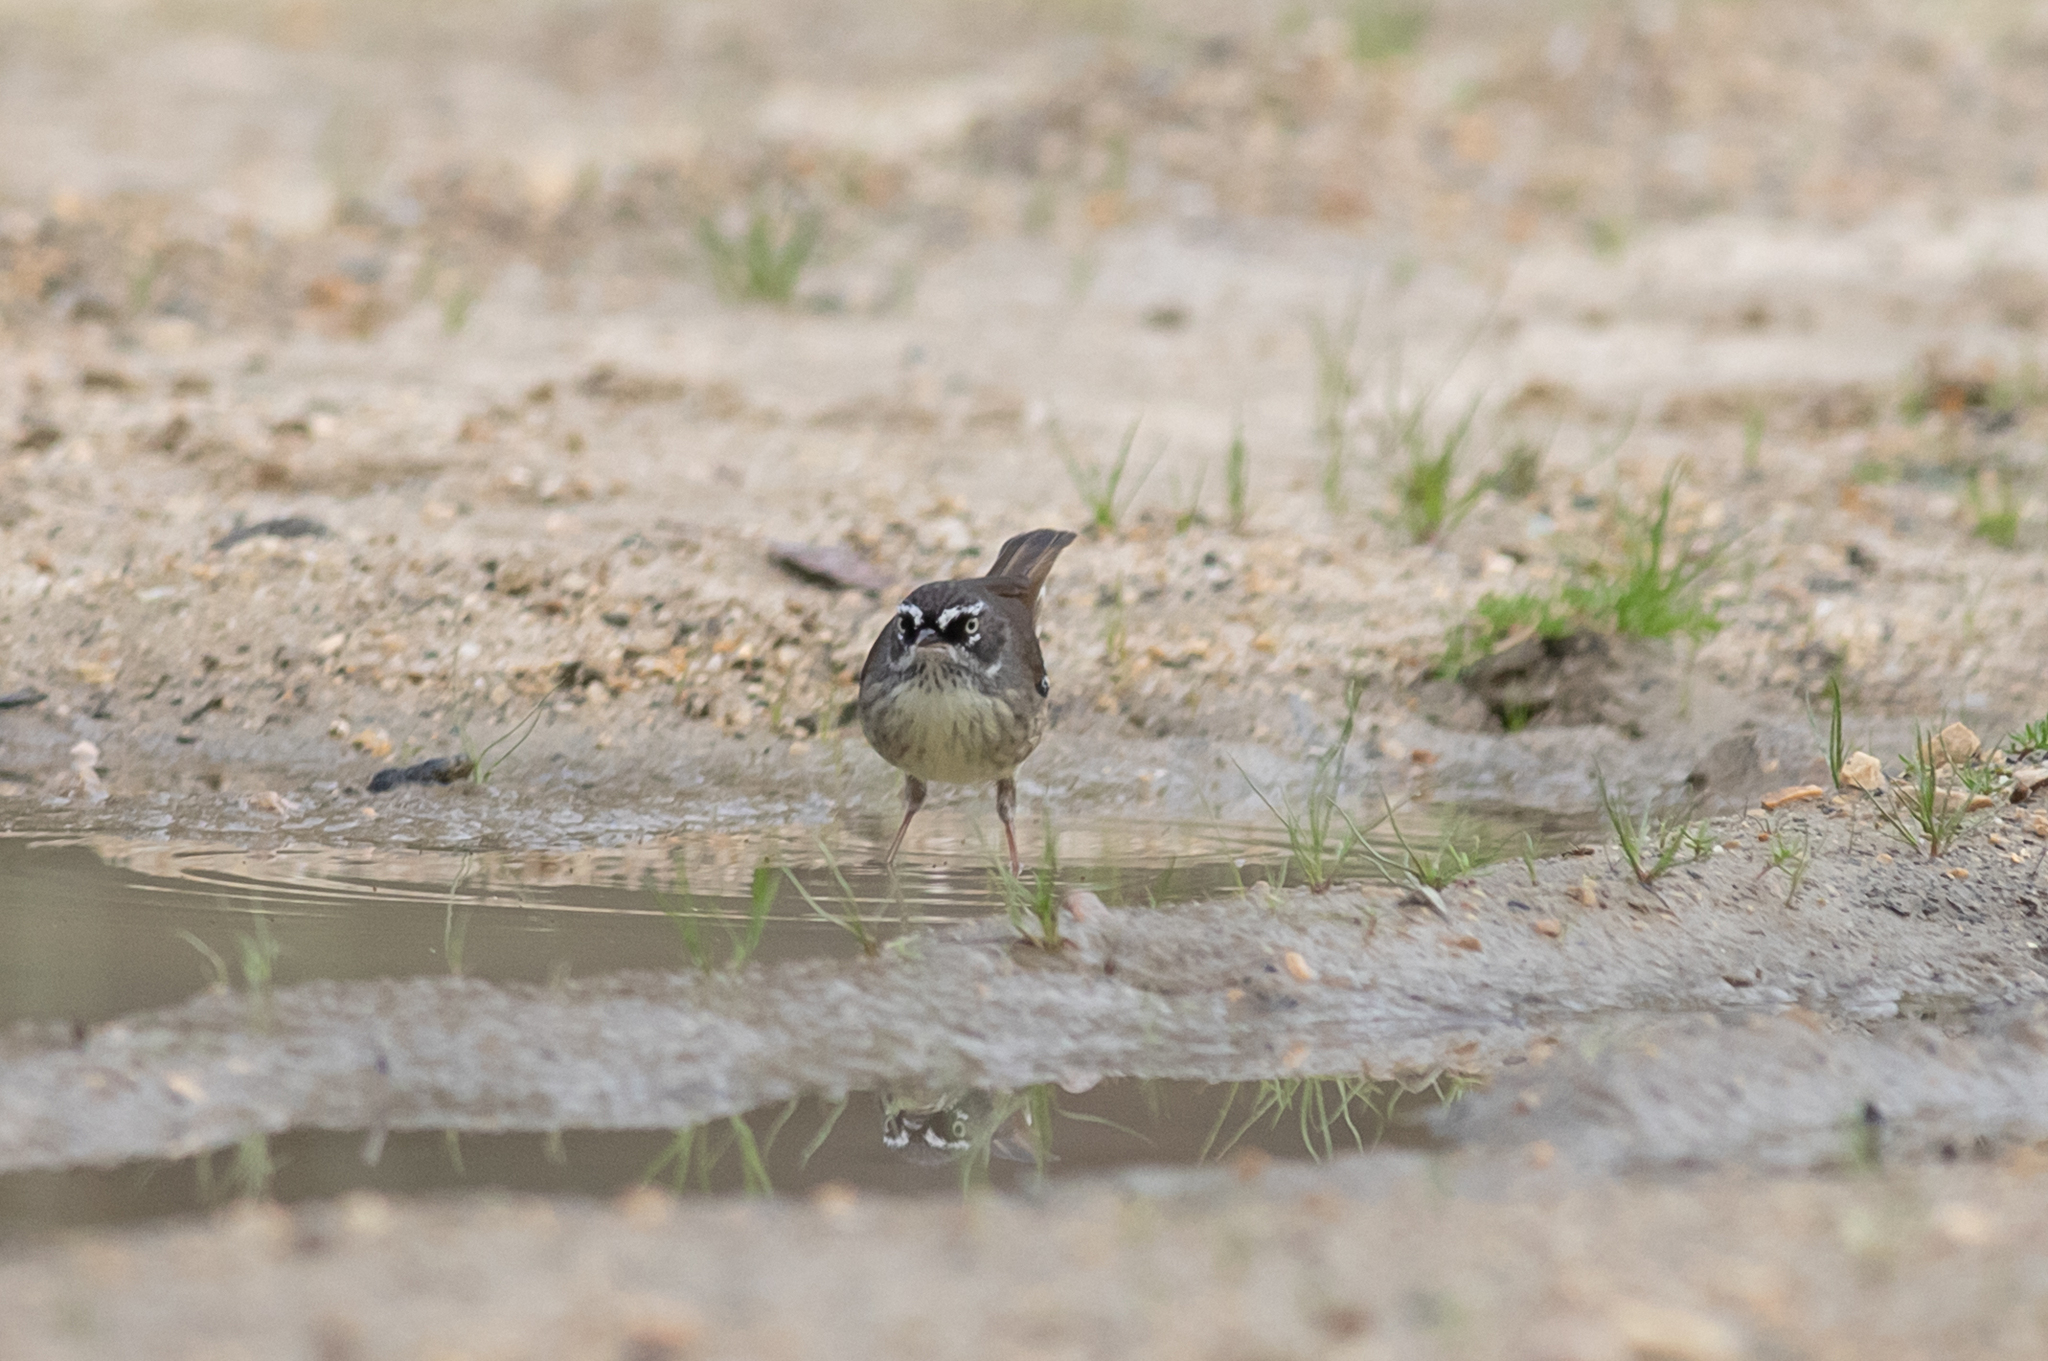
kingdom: Animalia
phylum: Chordata
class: Aves
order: Passeriformes
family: Acanthizidae
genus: Sericornis
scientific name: Sericornis frontalis
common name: White-browed scrubwren
